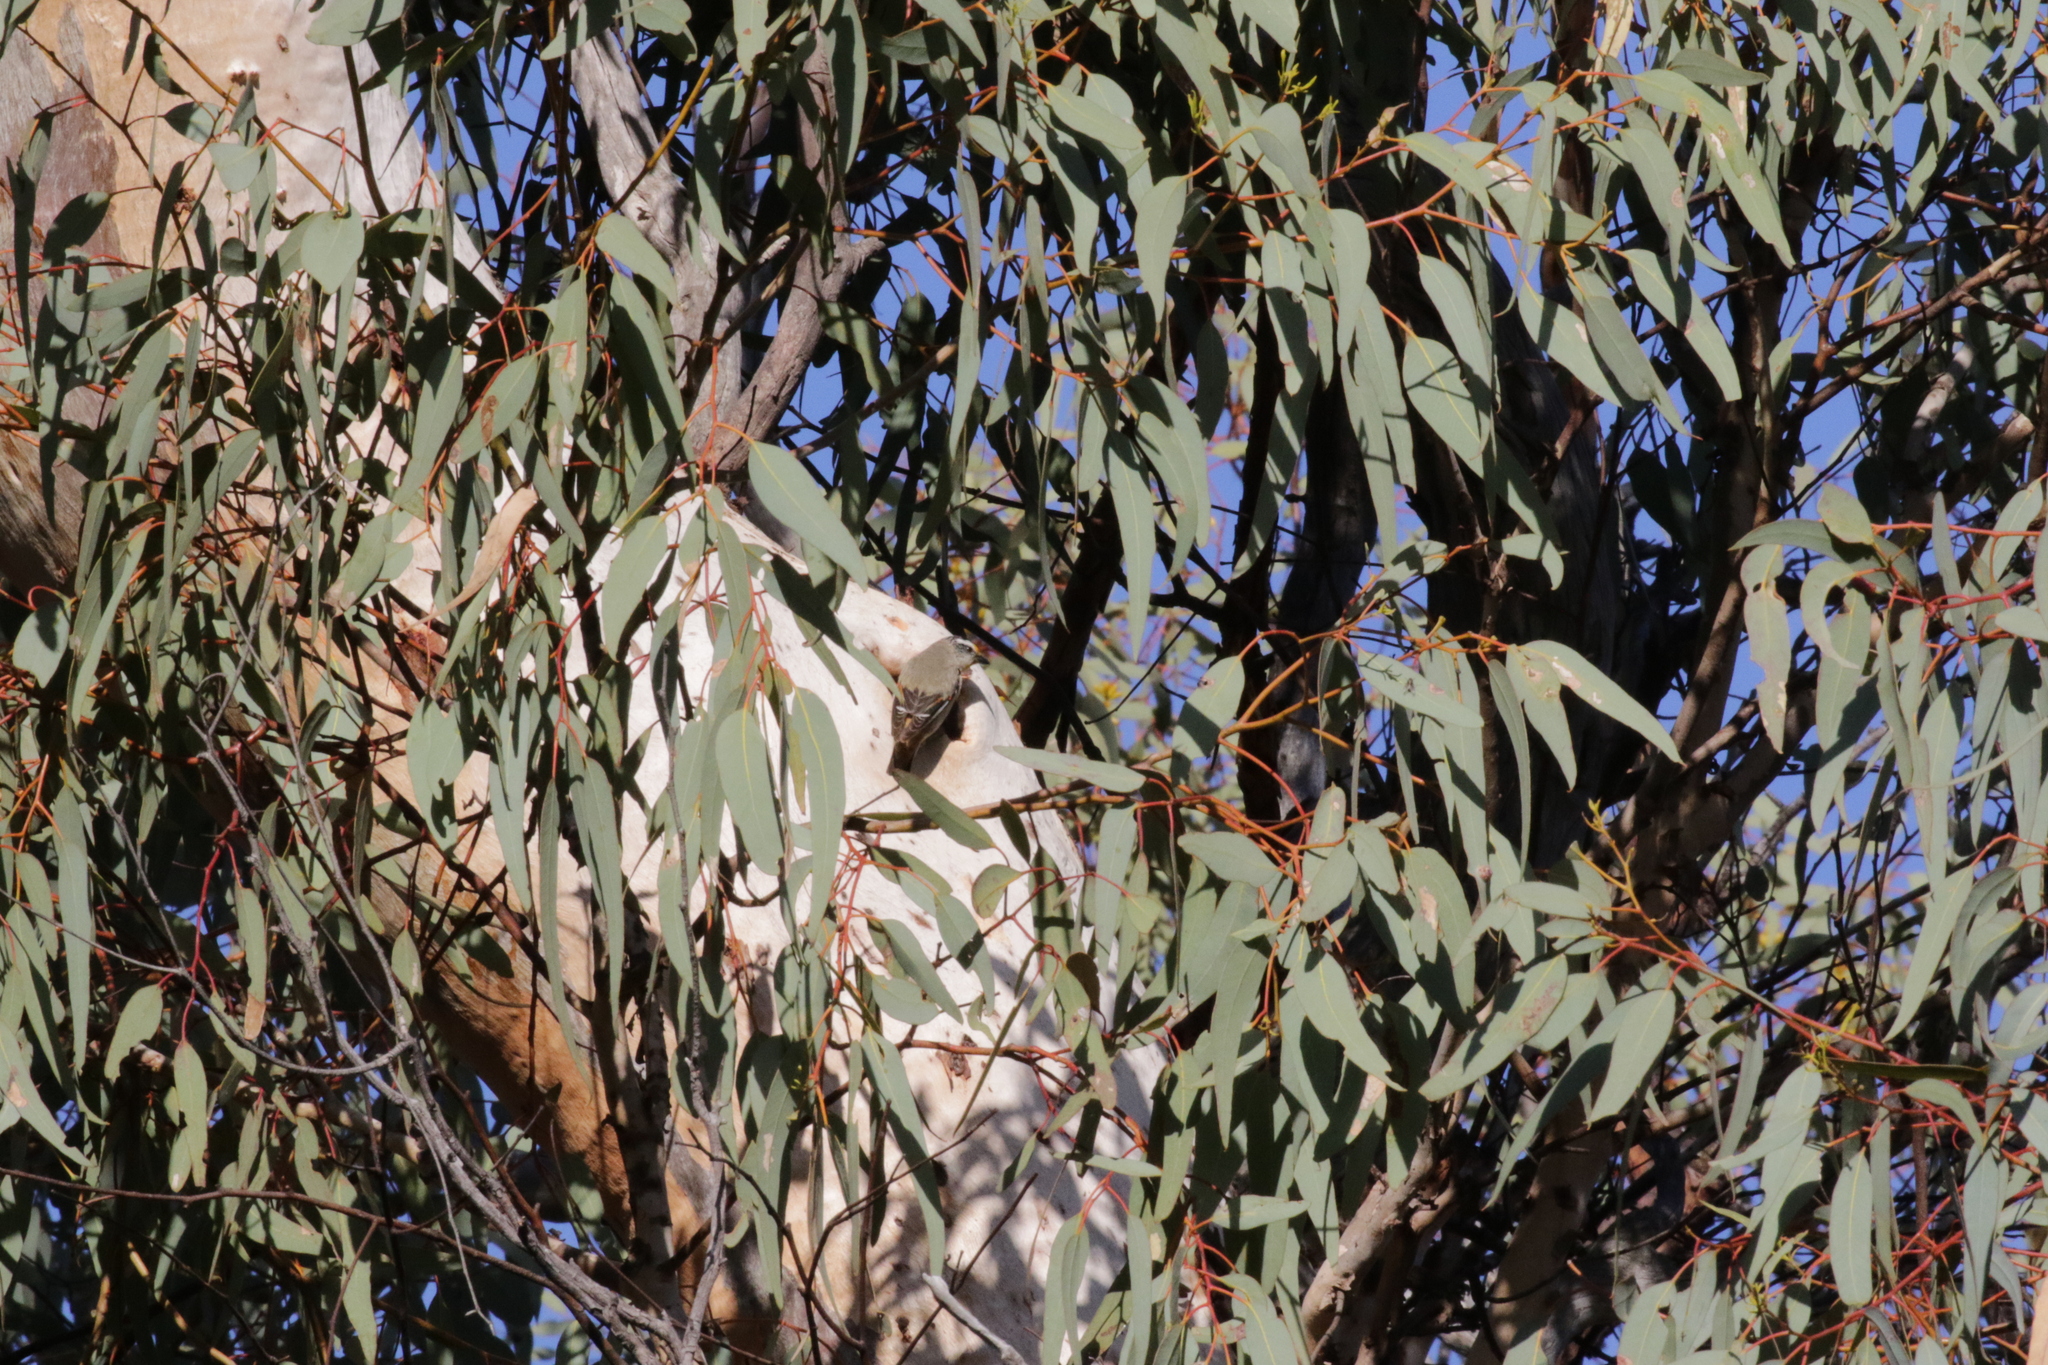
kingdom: Animalia
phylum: Chordata
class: Aves
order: Passeriformes
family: Pardalotidae
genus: Pardalotus
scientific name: Pardalotus striatus
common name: Striated pardalote
